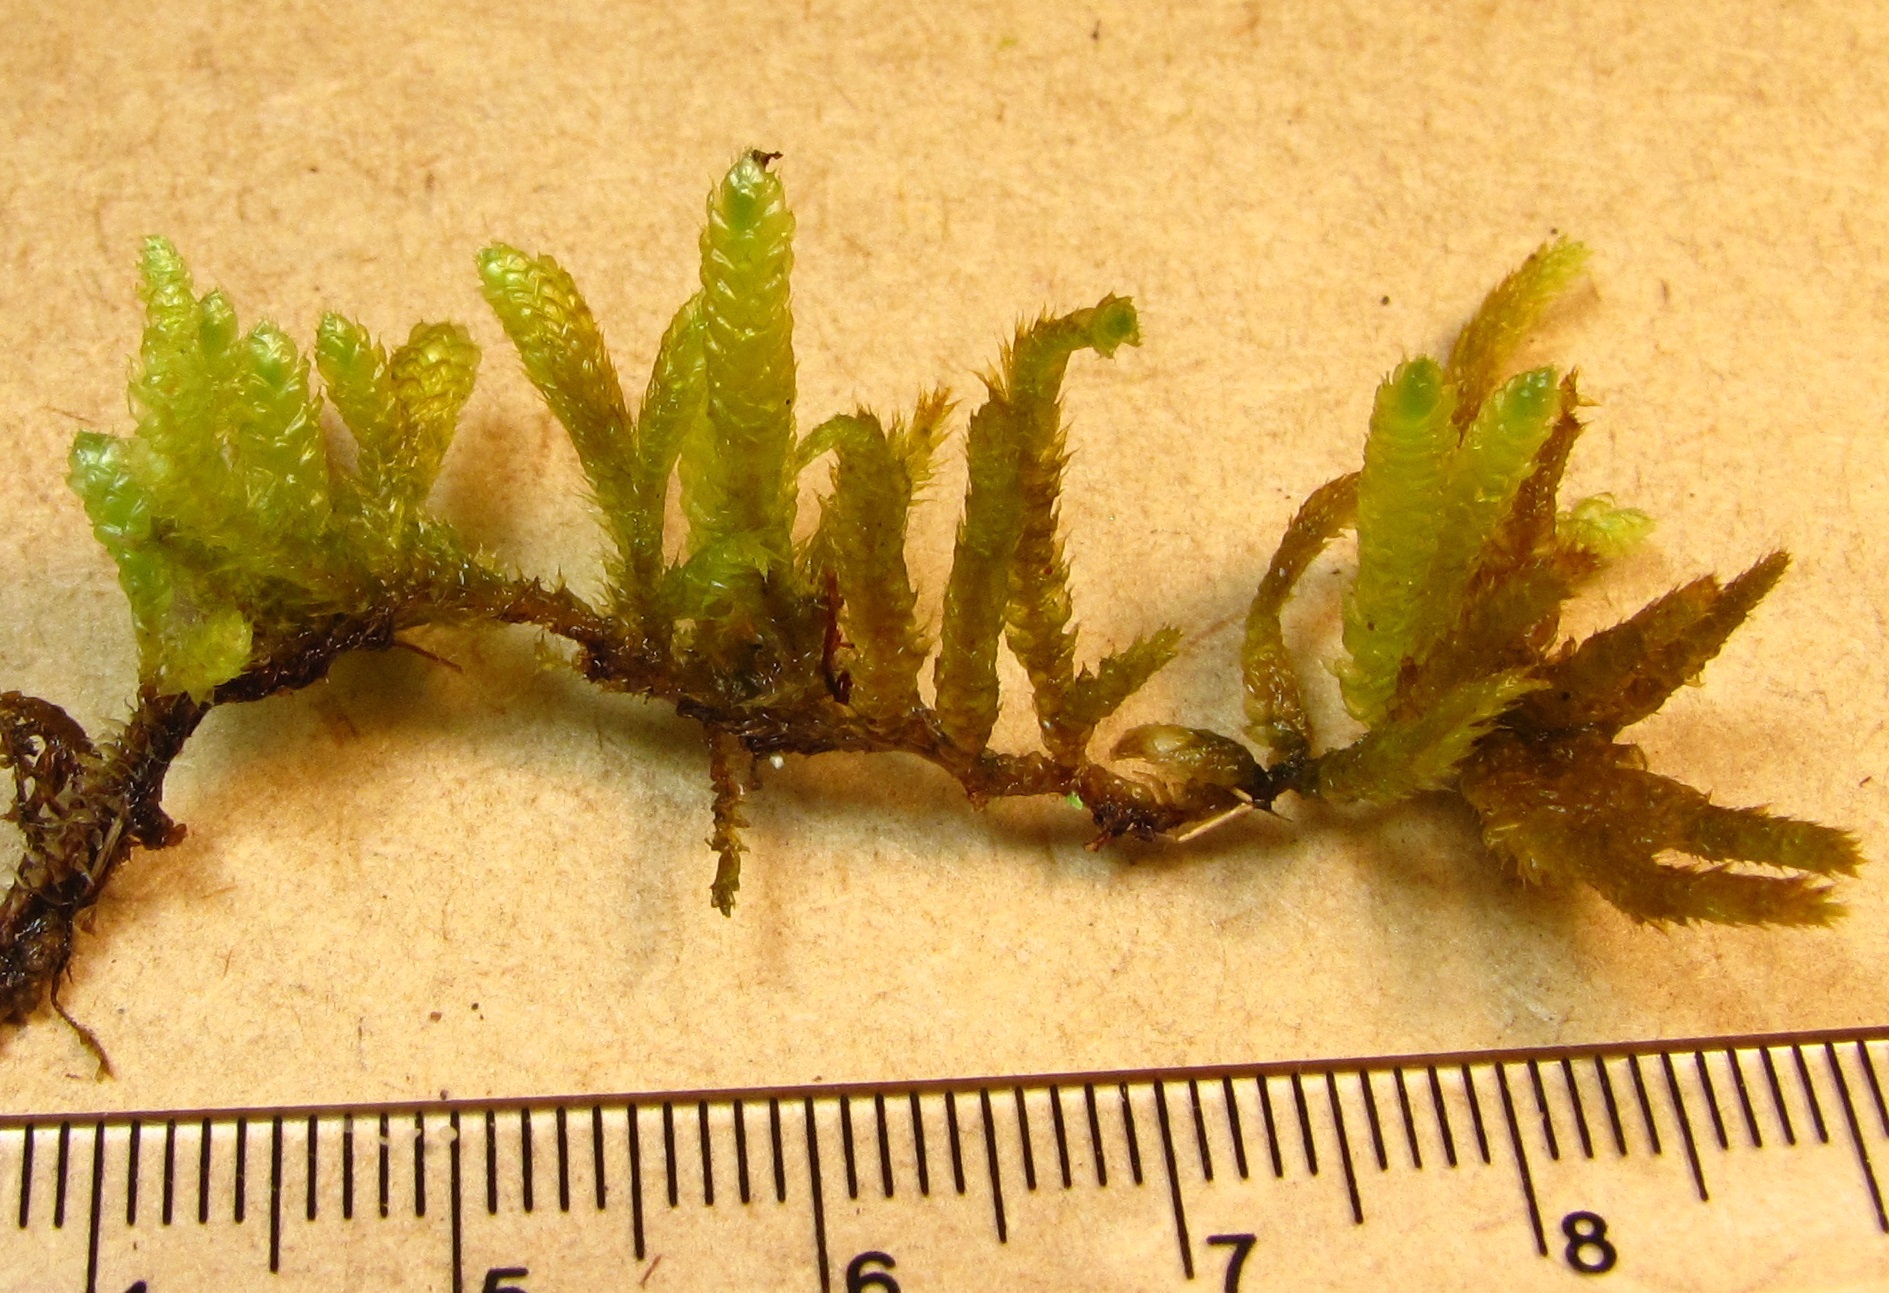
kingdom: Plantae
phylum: Bryophyta
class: Bryopsida
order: Hypnales
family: Brachytheciaceae
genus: Bryoandersonia
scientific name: Bryoandersonia illecebra
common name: Spoon-leaved moss
